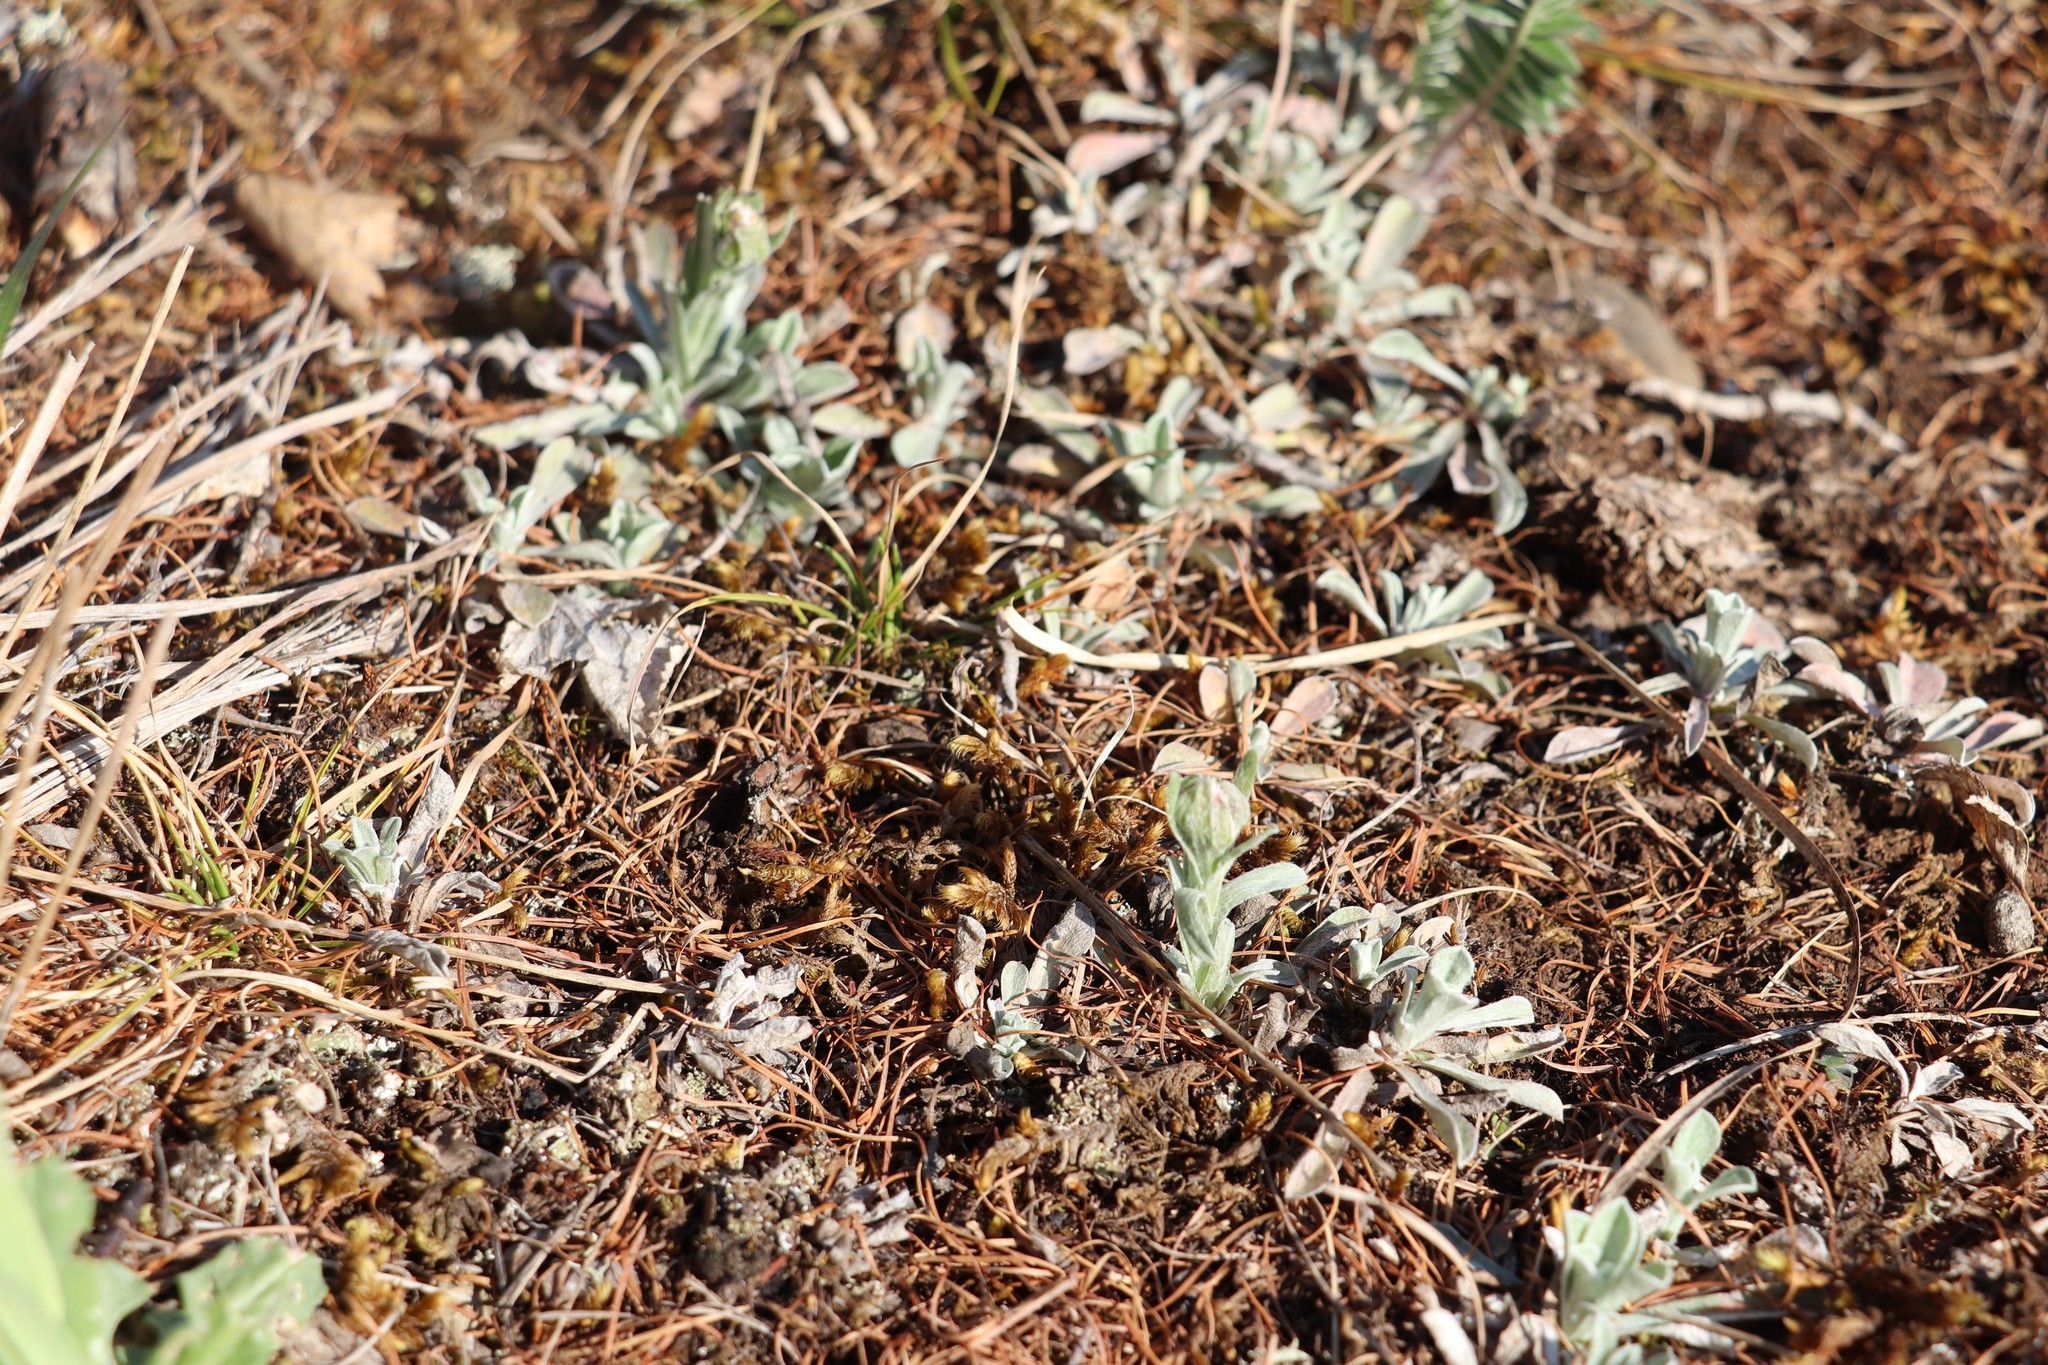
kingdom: Plantae
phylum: Tracheophyta
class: Magnoliopsida
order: Asterales
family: Asteraceae
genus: Antennaria
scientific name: Antennaria dioica
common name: Mountain everlasting
